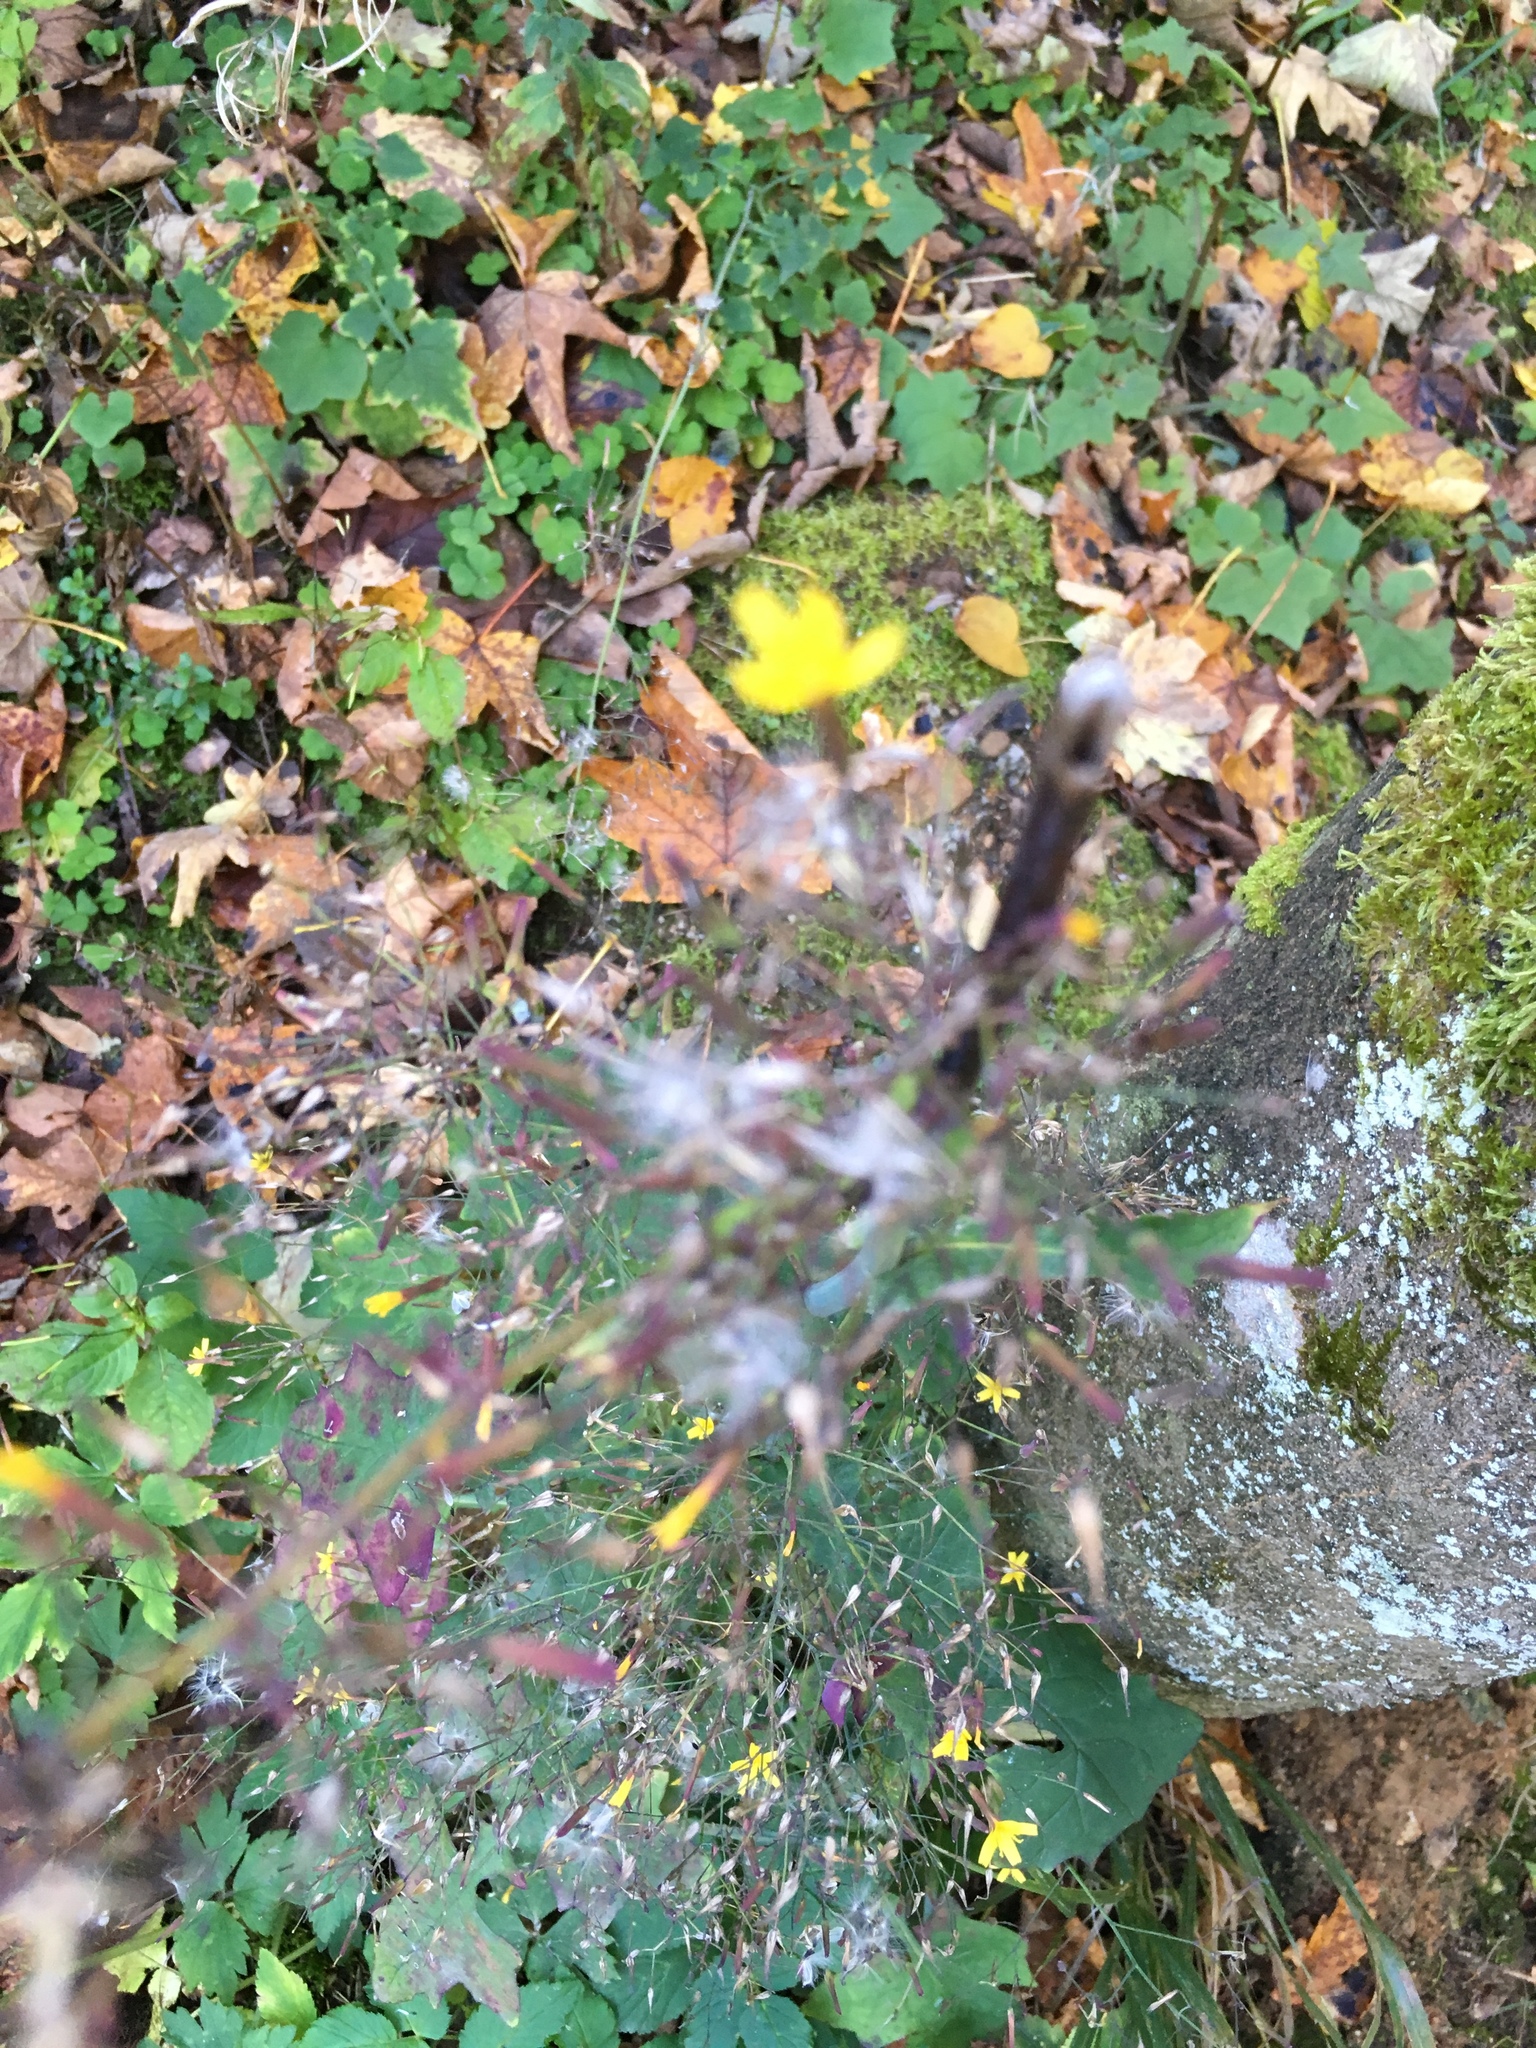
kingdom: Plantae
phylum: Tracheophyta
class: Magnoliopsida
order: Asterales
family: Asteraceae
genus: Mycelis
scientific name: Mycelis muralis
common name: Wall lettuce
